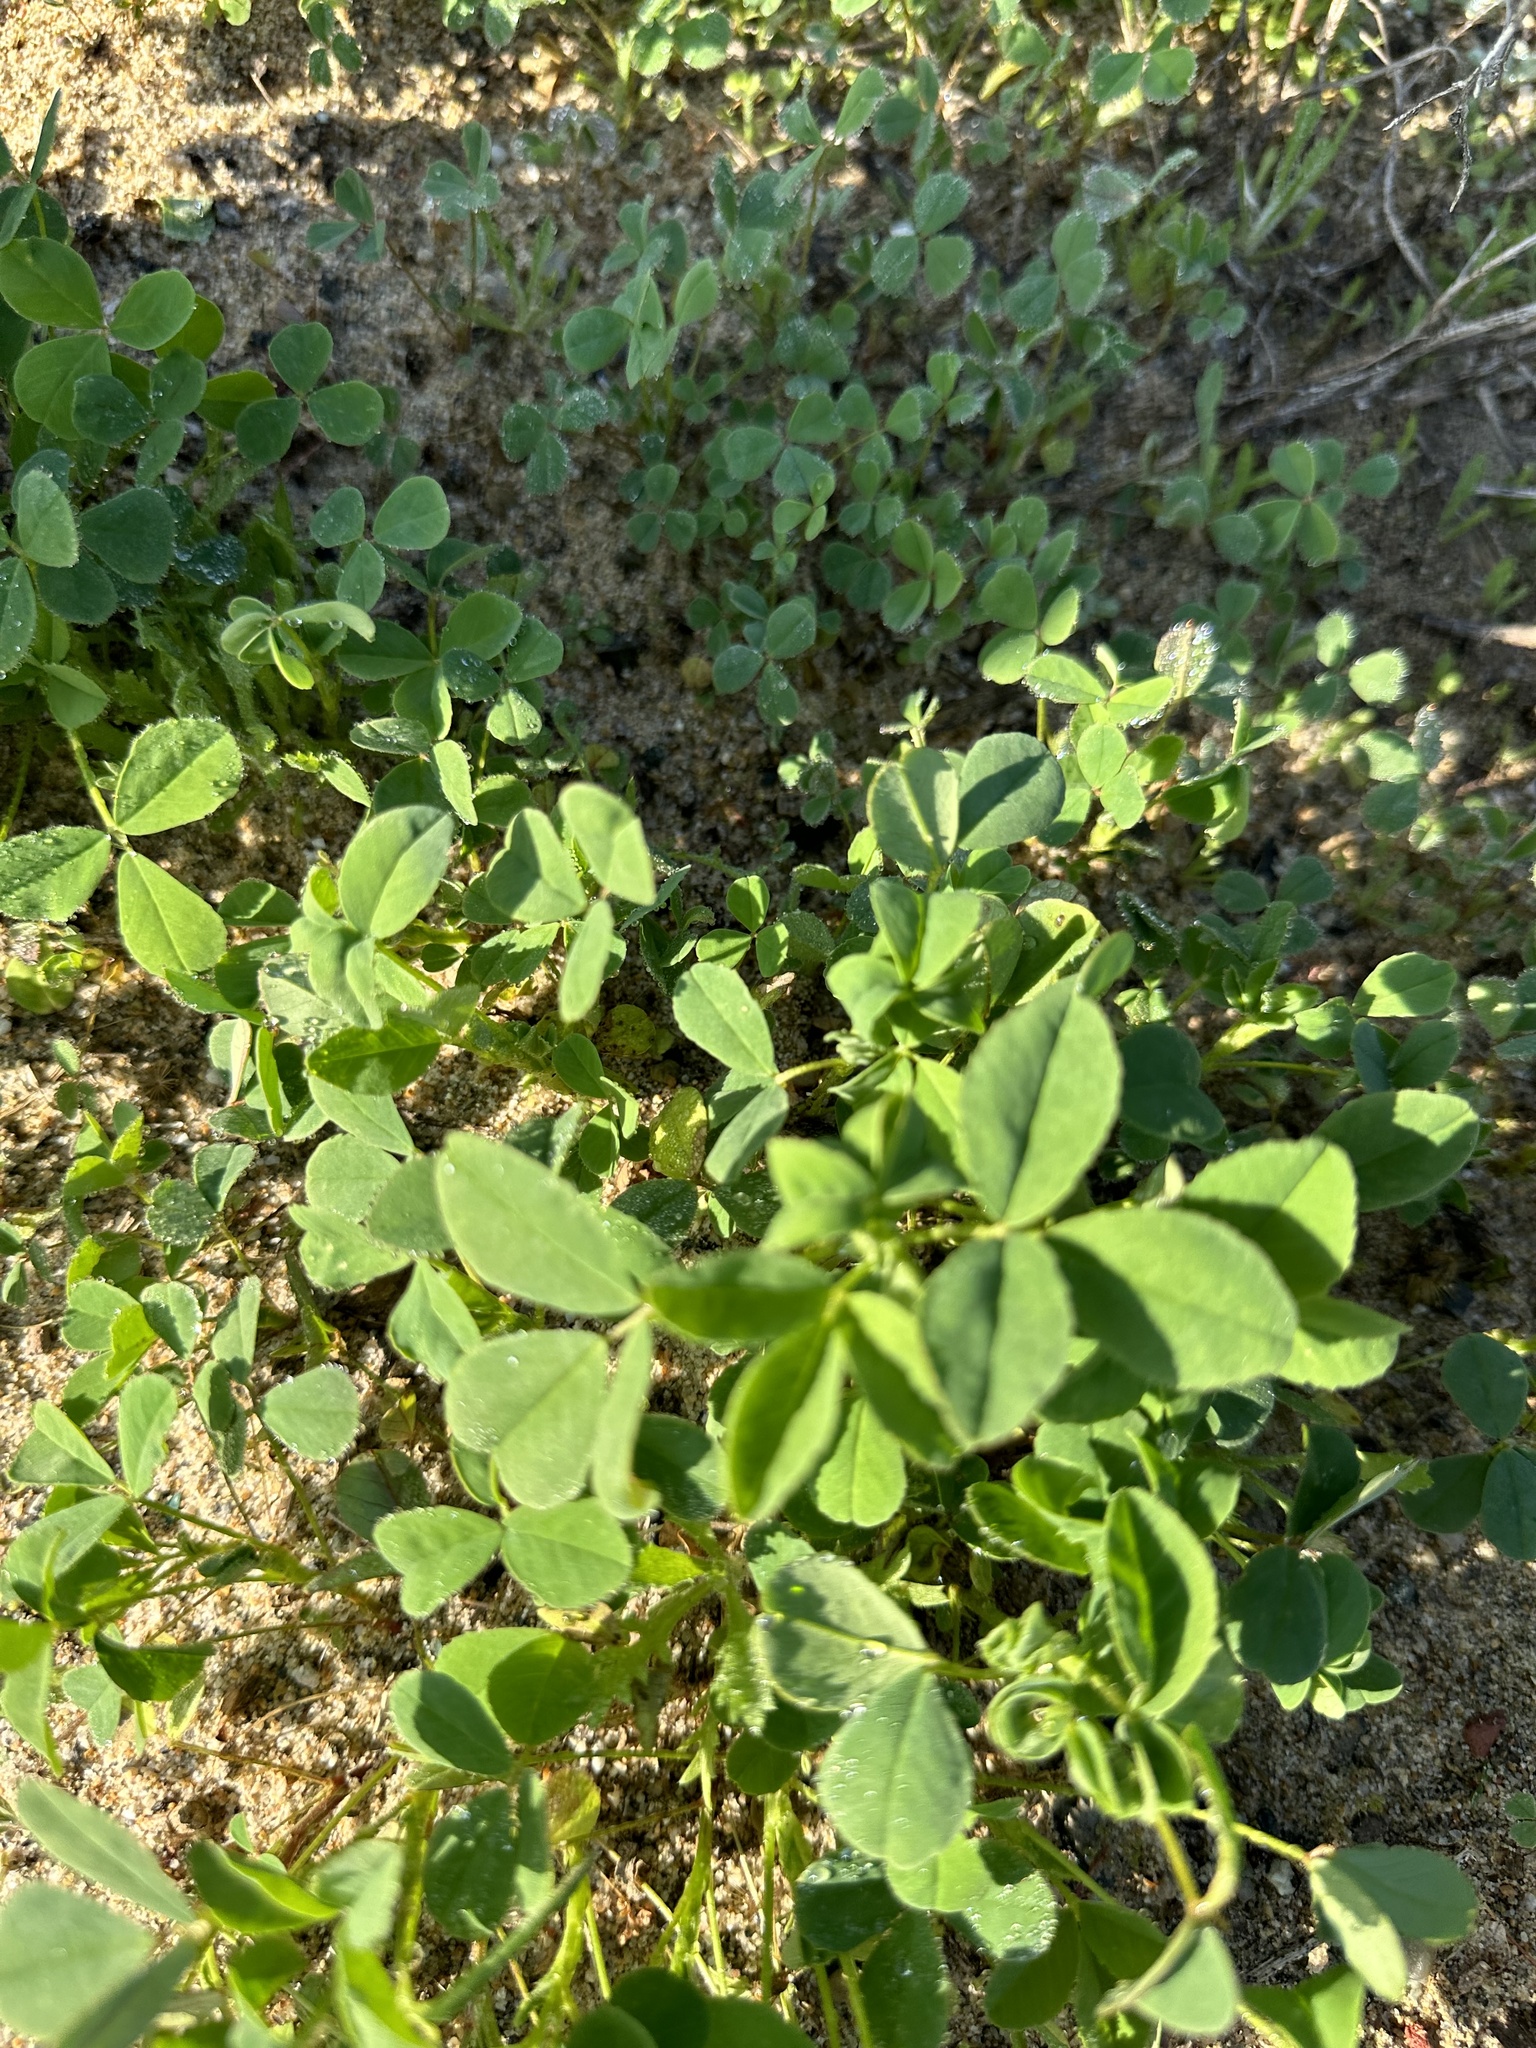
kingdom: Plantae
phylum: Tracheophyta
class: Magnoliopsida
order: Fabales
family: Fabaceae
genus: Melilotus
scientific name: Melilotus indicus
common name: Small melilot
